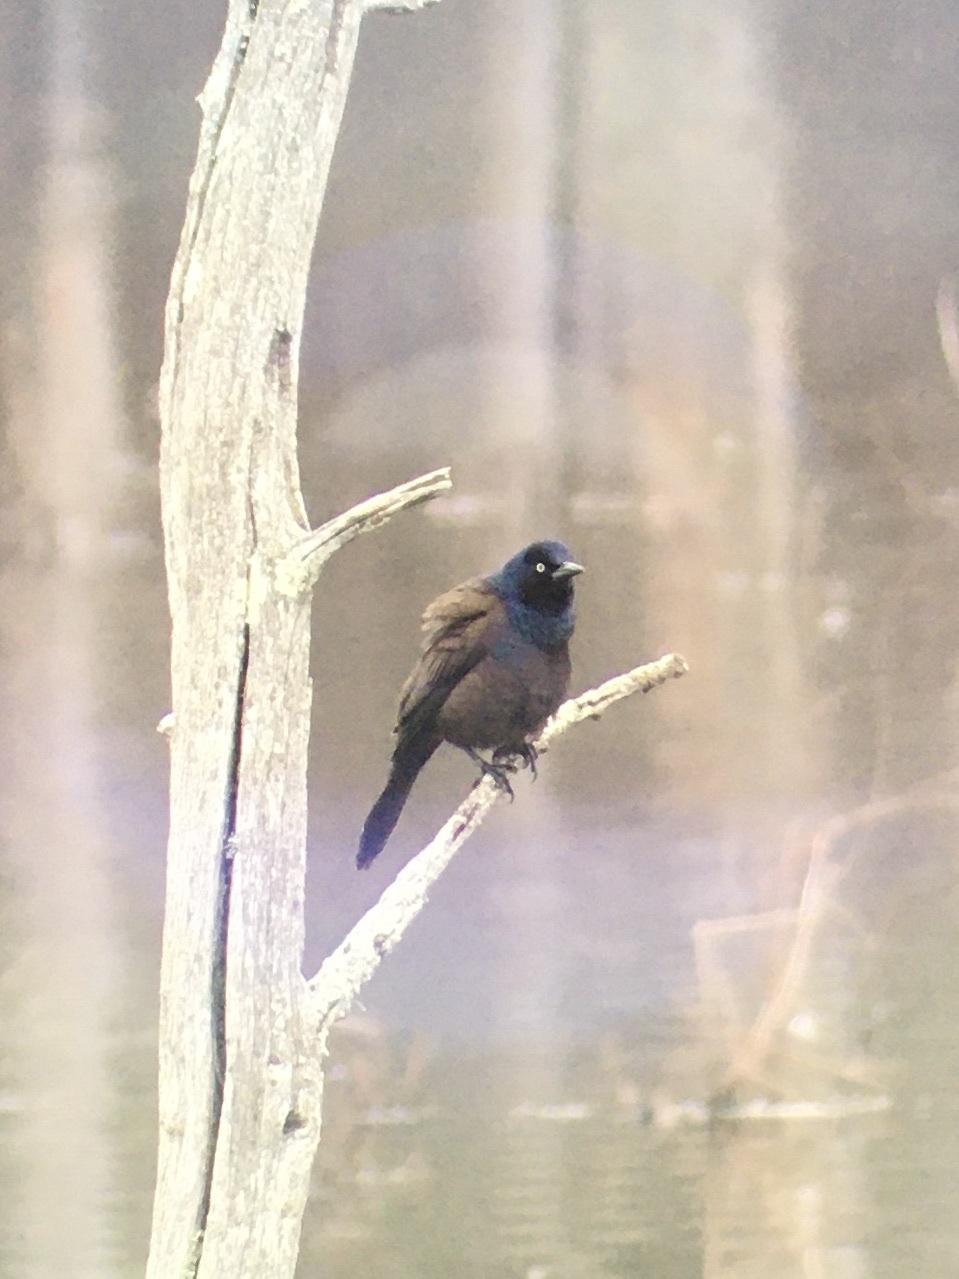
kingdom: Animalia
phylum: Chordata
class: Aves
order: Passeriformes
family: Icteridae
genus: Quiscalus
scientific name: Quiscalus quiscula
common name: Common grackle
